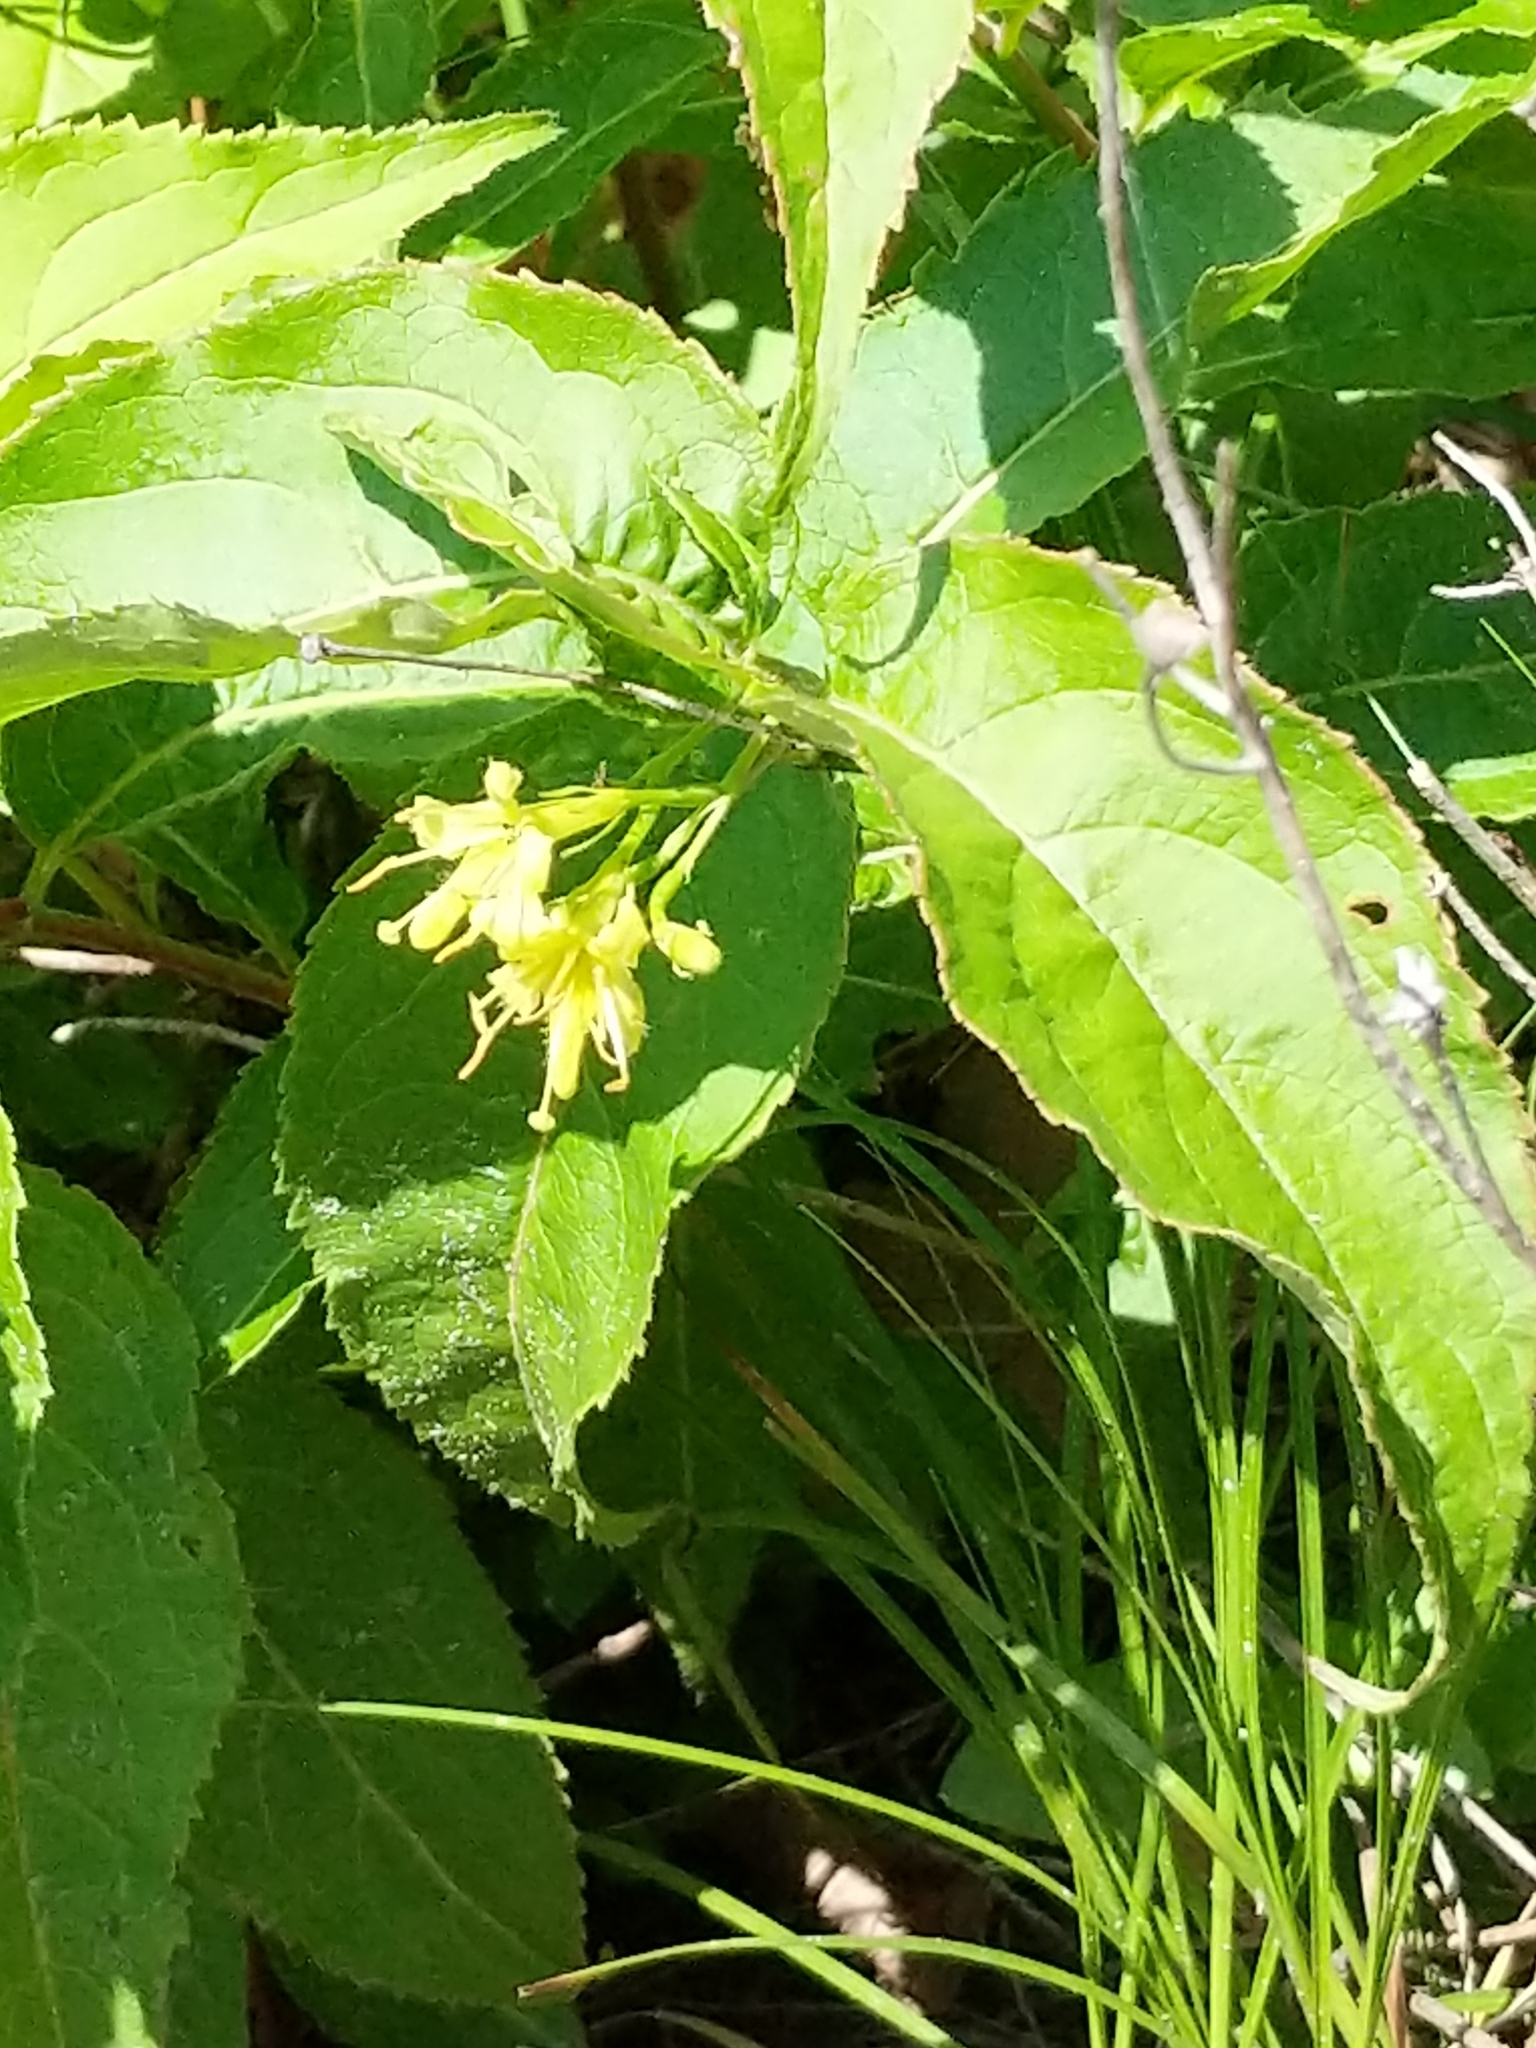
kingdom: Plantae
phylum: Tracheophyta
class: Magnoliopsida
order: Dipsacales
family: Caprifoliaceae
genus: Diervilla
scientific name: Diervilla lonicera
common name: Bush-honeysuckle
